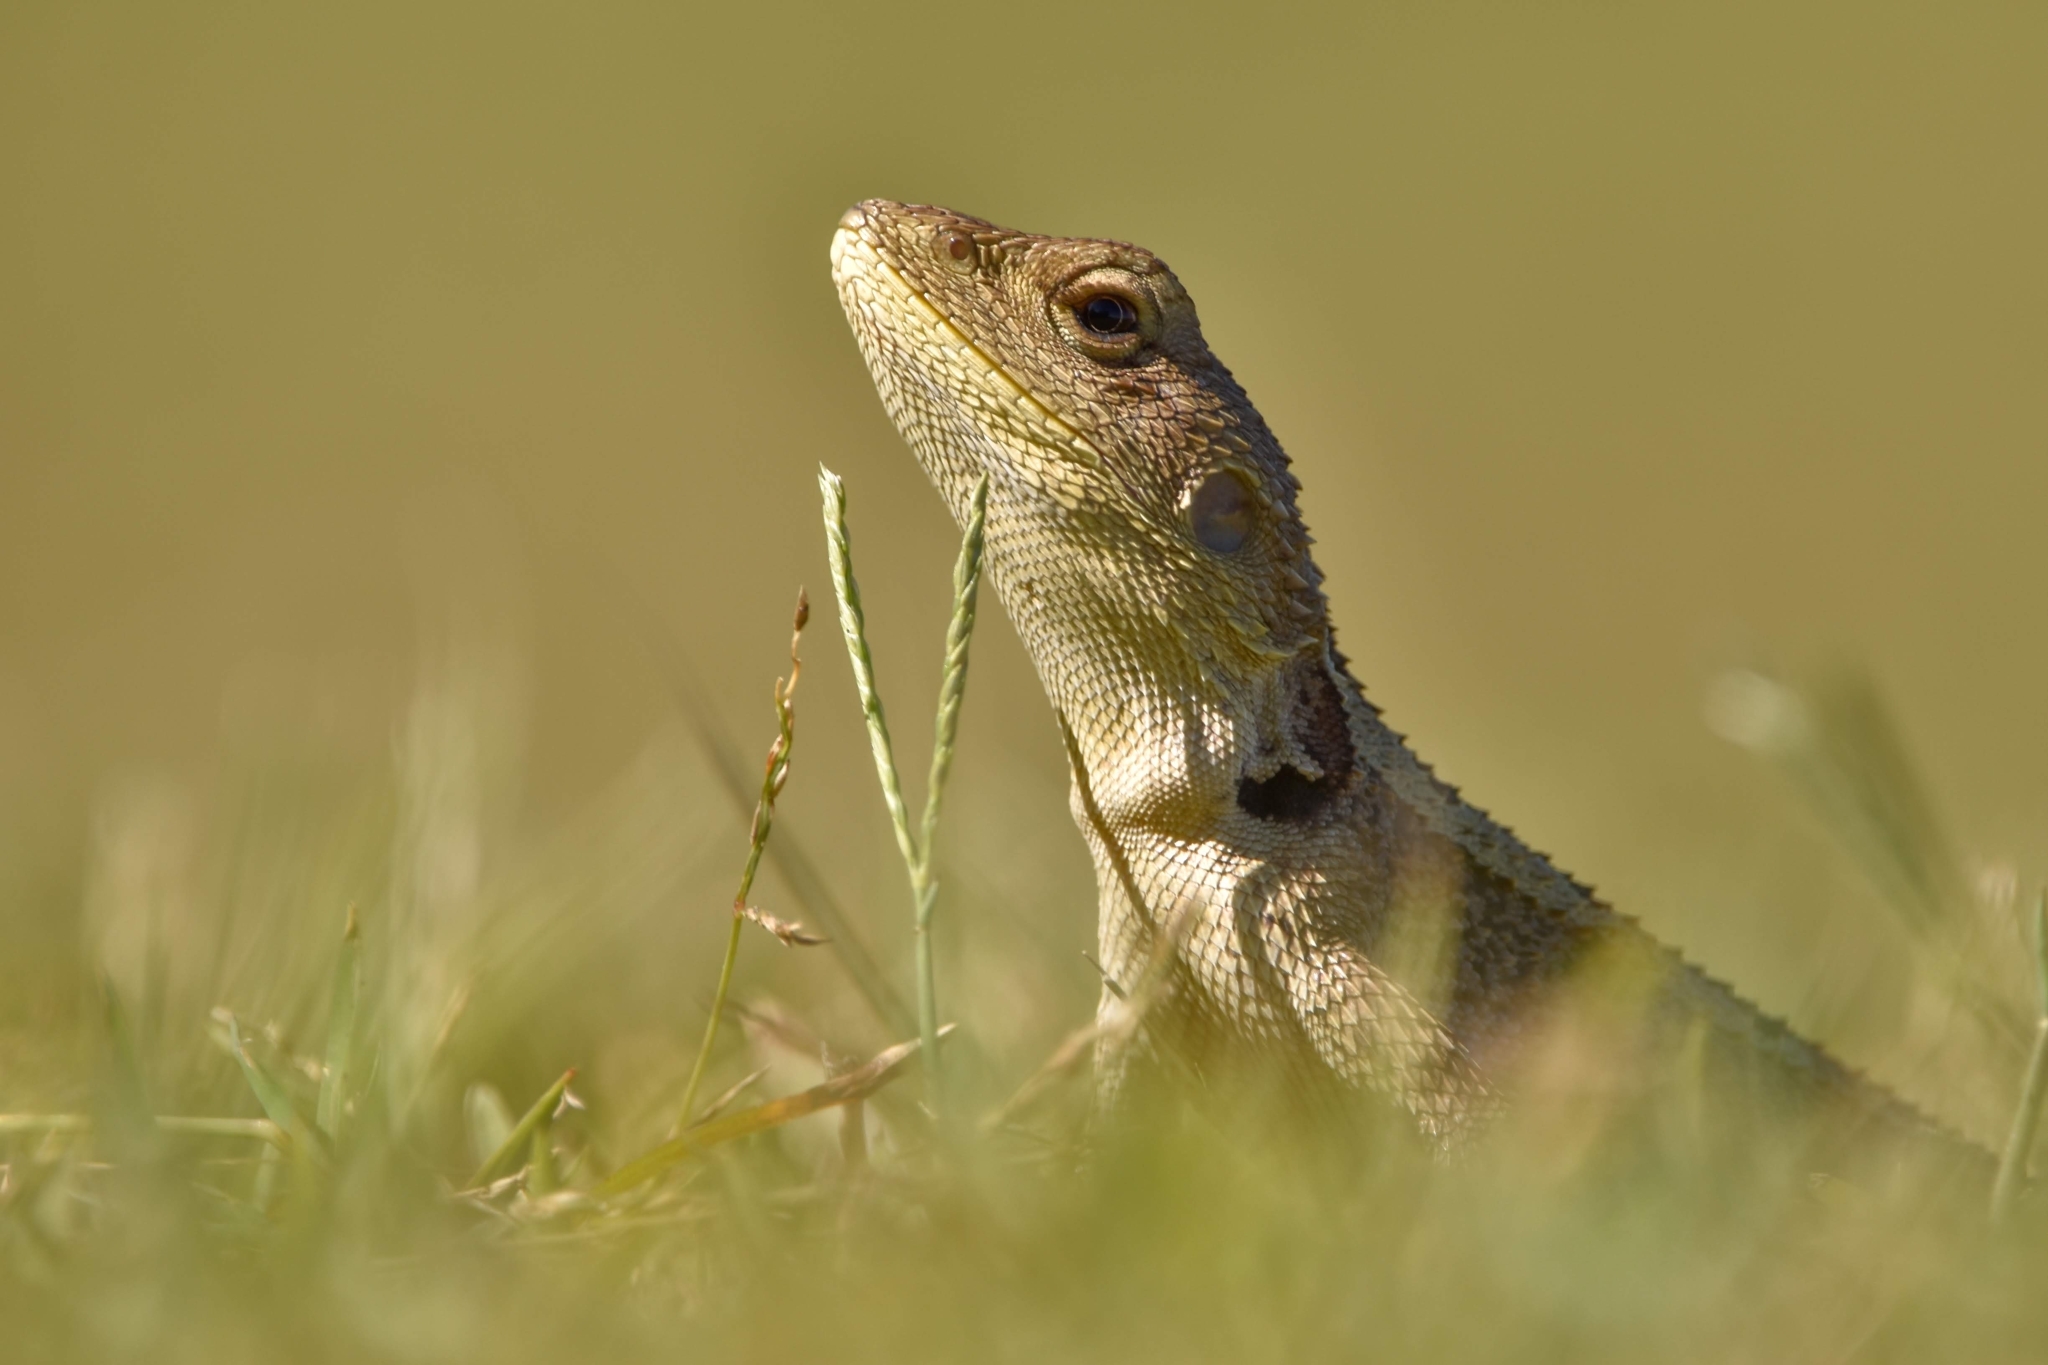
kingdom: Animalia
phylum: Chordata
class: Squamata
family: Agamidae
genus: Amphibolurus
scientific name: Amphibolurus muricatus
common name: Jacky lizard
